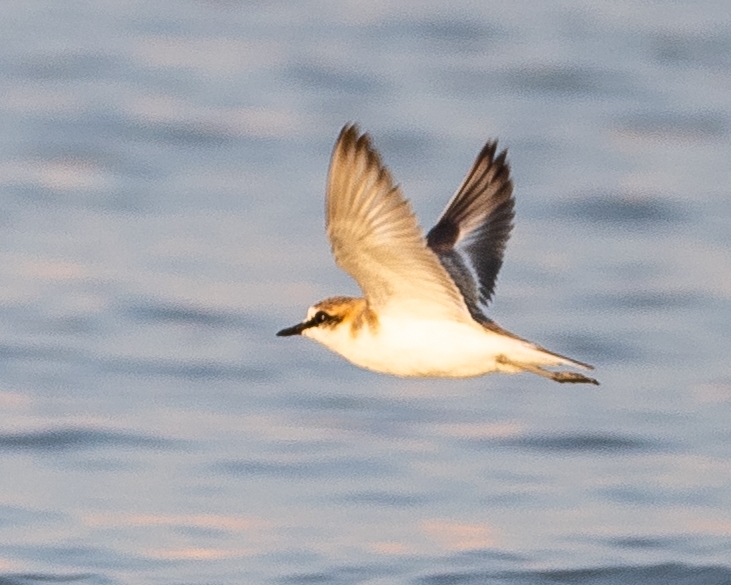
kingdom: Animalia
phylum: Chordata
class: Aves
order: Charadriiformes
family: Charadriidae
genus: Anarhynchus
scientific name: Anarhynchus
